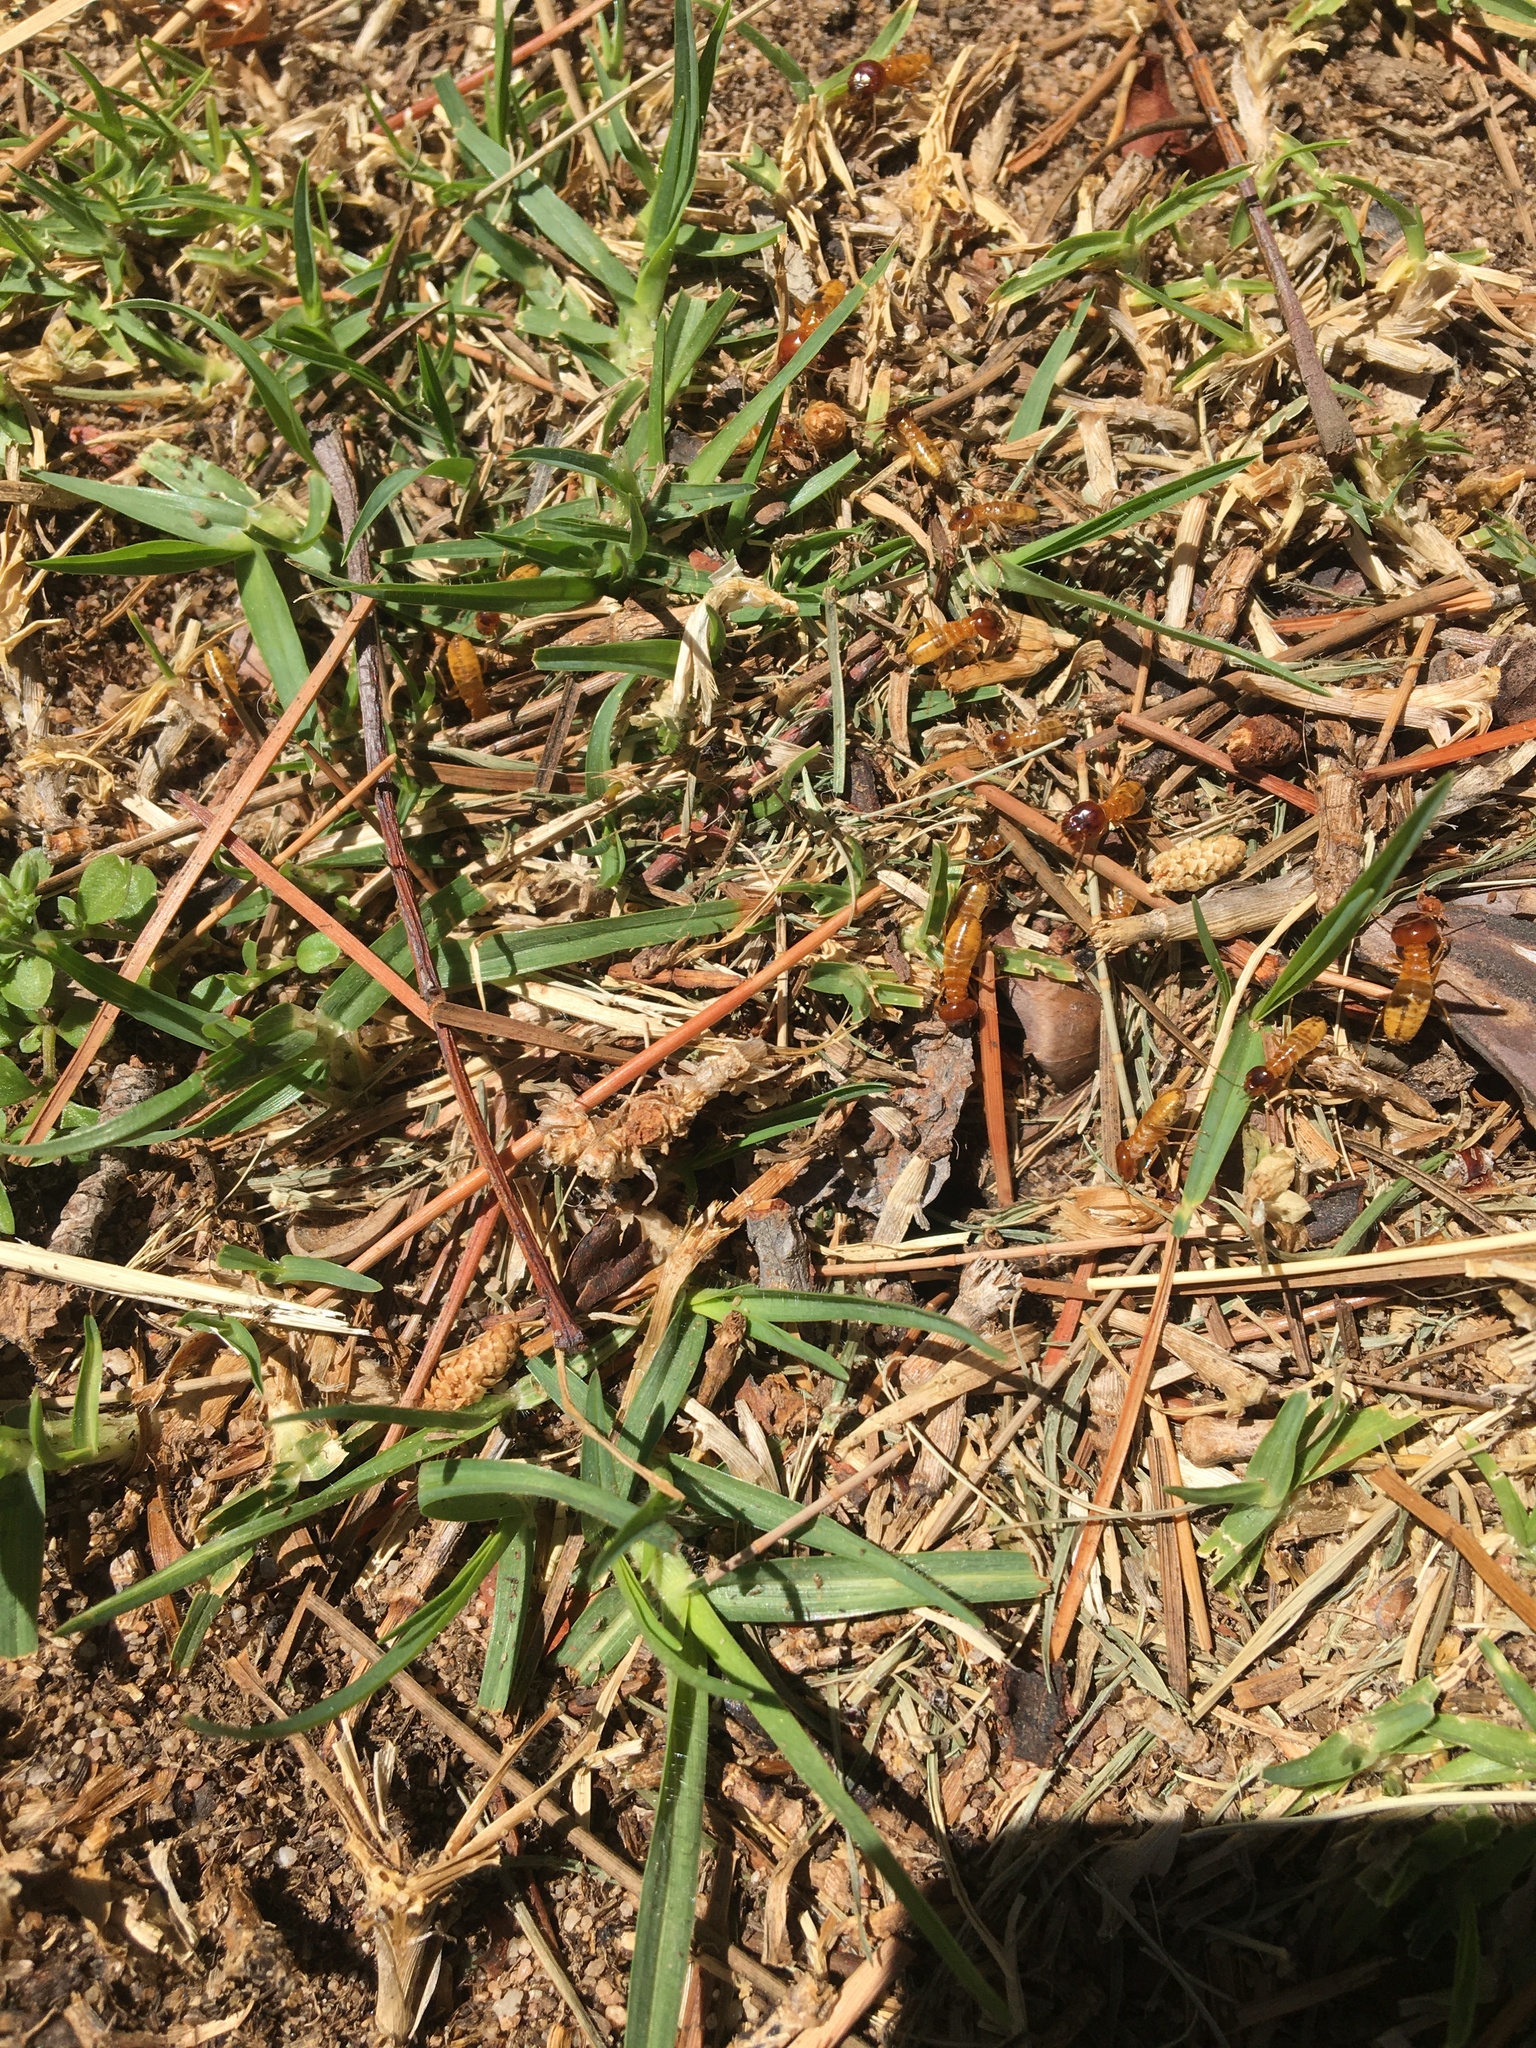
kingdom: Animalia
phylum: Arthropoda
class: Insecta
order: Blattodea
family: Hodotermitidae
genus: Microhodotermes
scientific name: Microhodotermes viator
